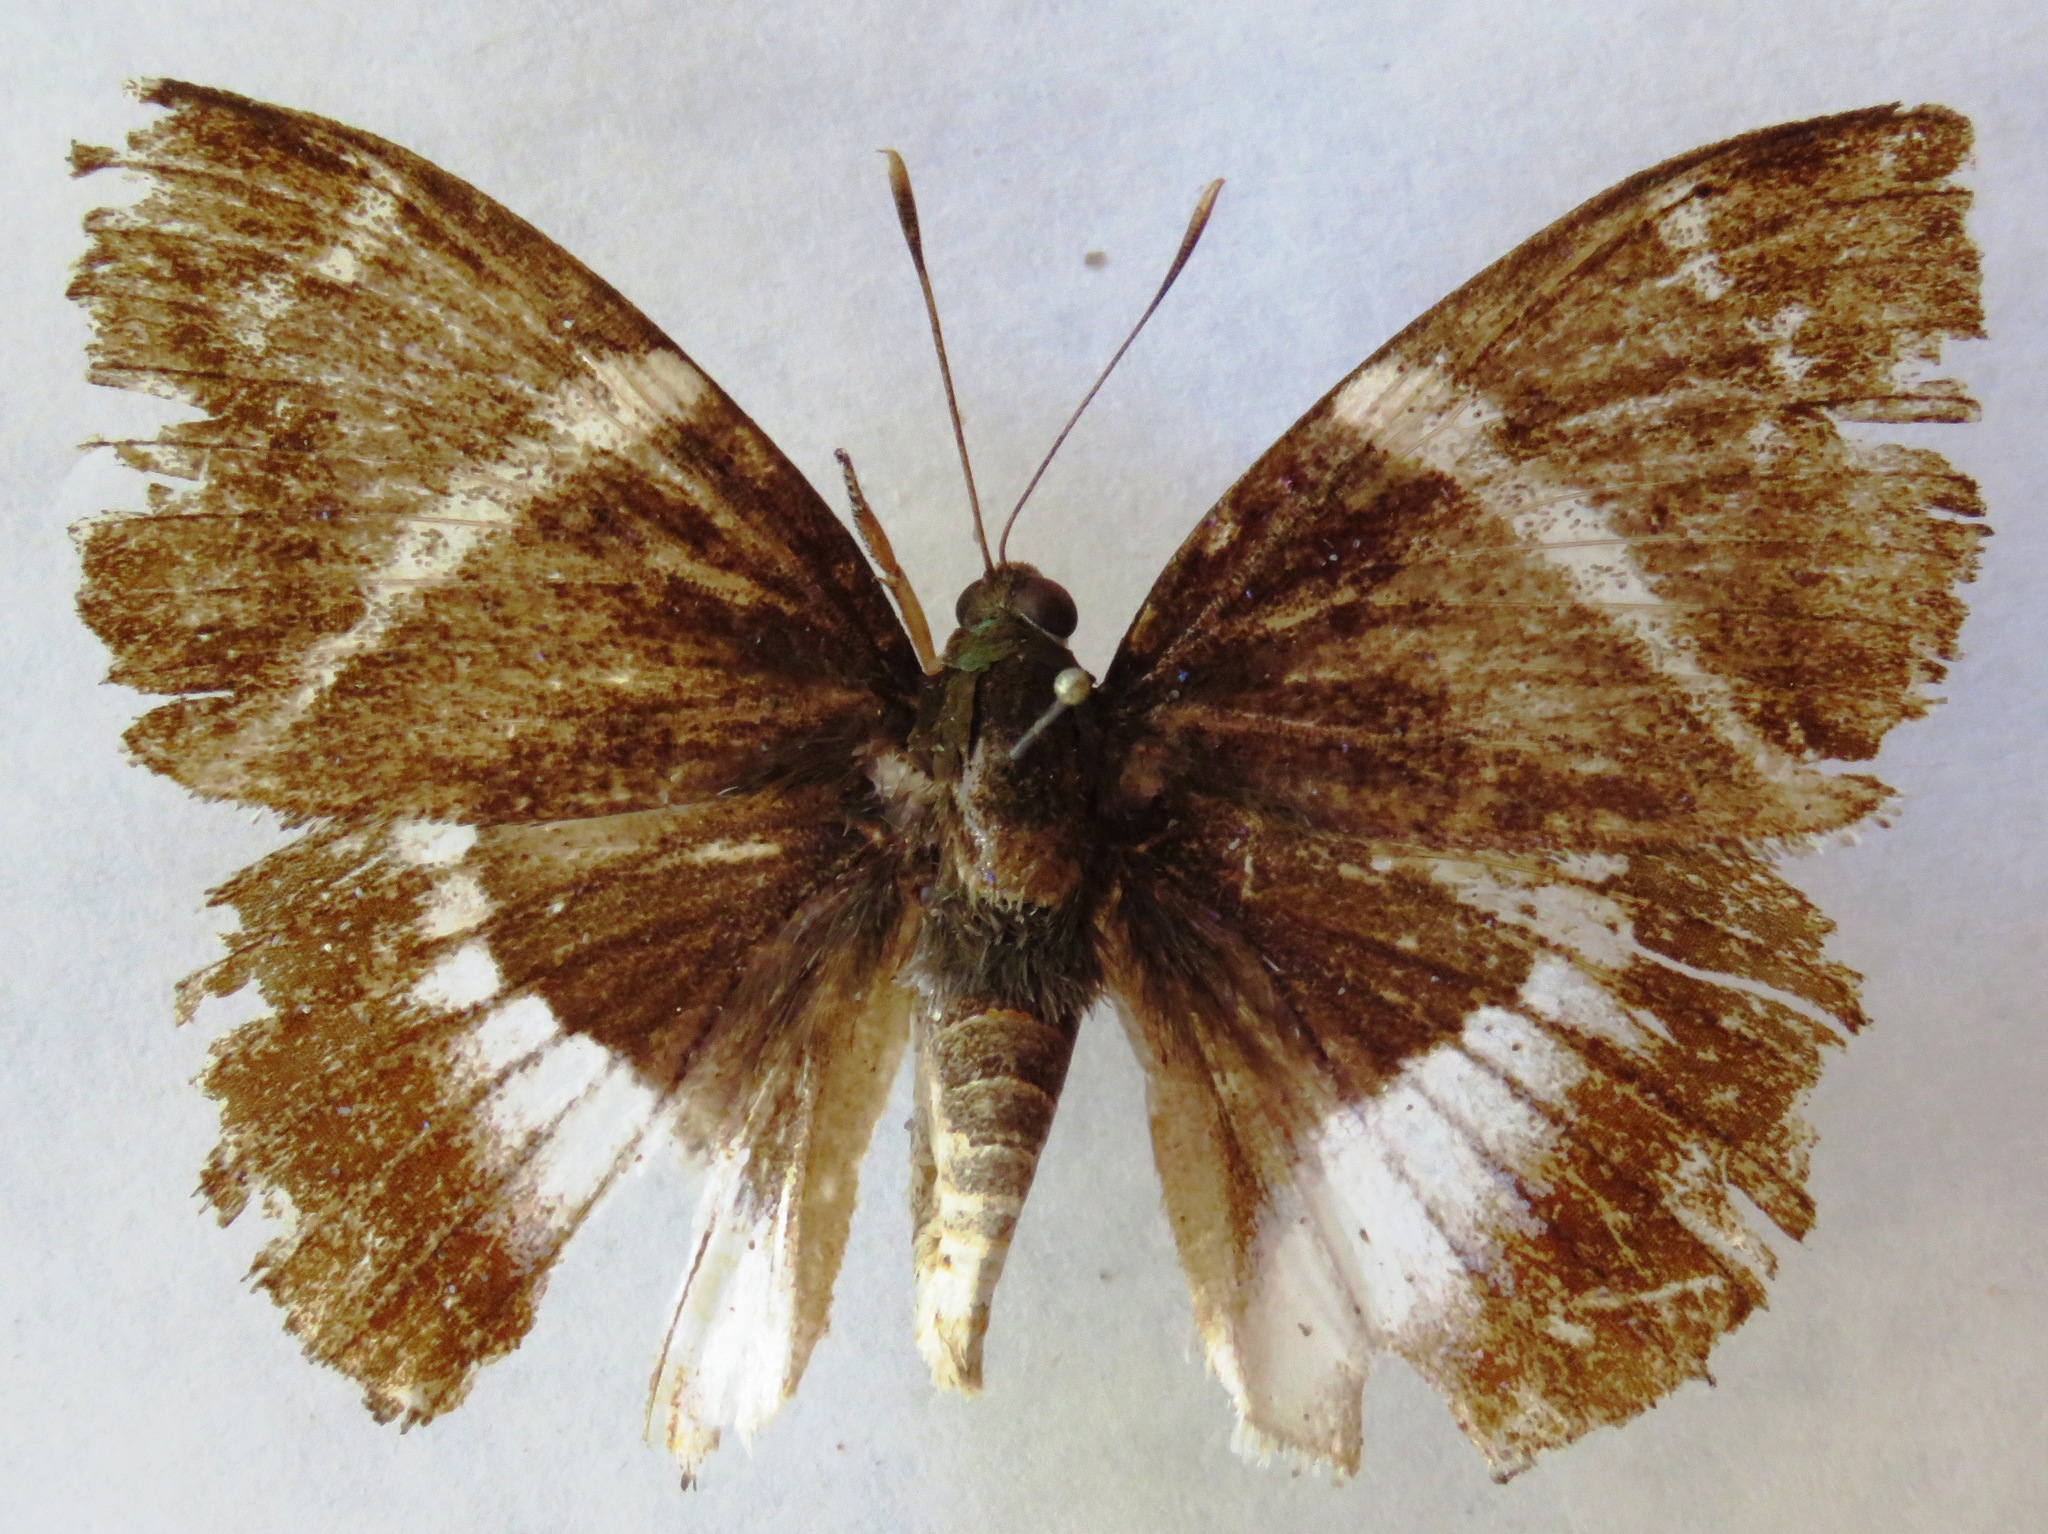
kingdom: Animalia
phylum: Arthropoda
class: Insecta
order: Lepidoptera
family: Castniidae
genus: Castniomera
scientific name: Castniomera atymnius
